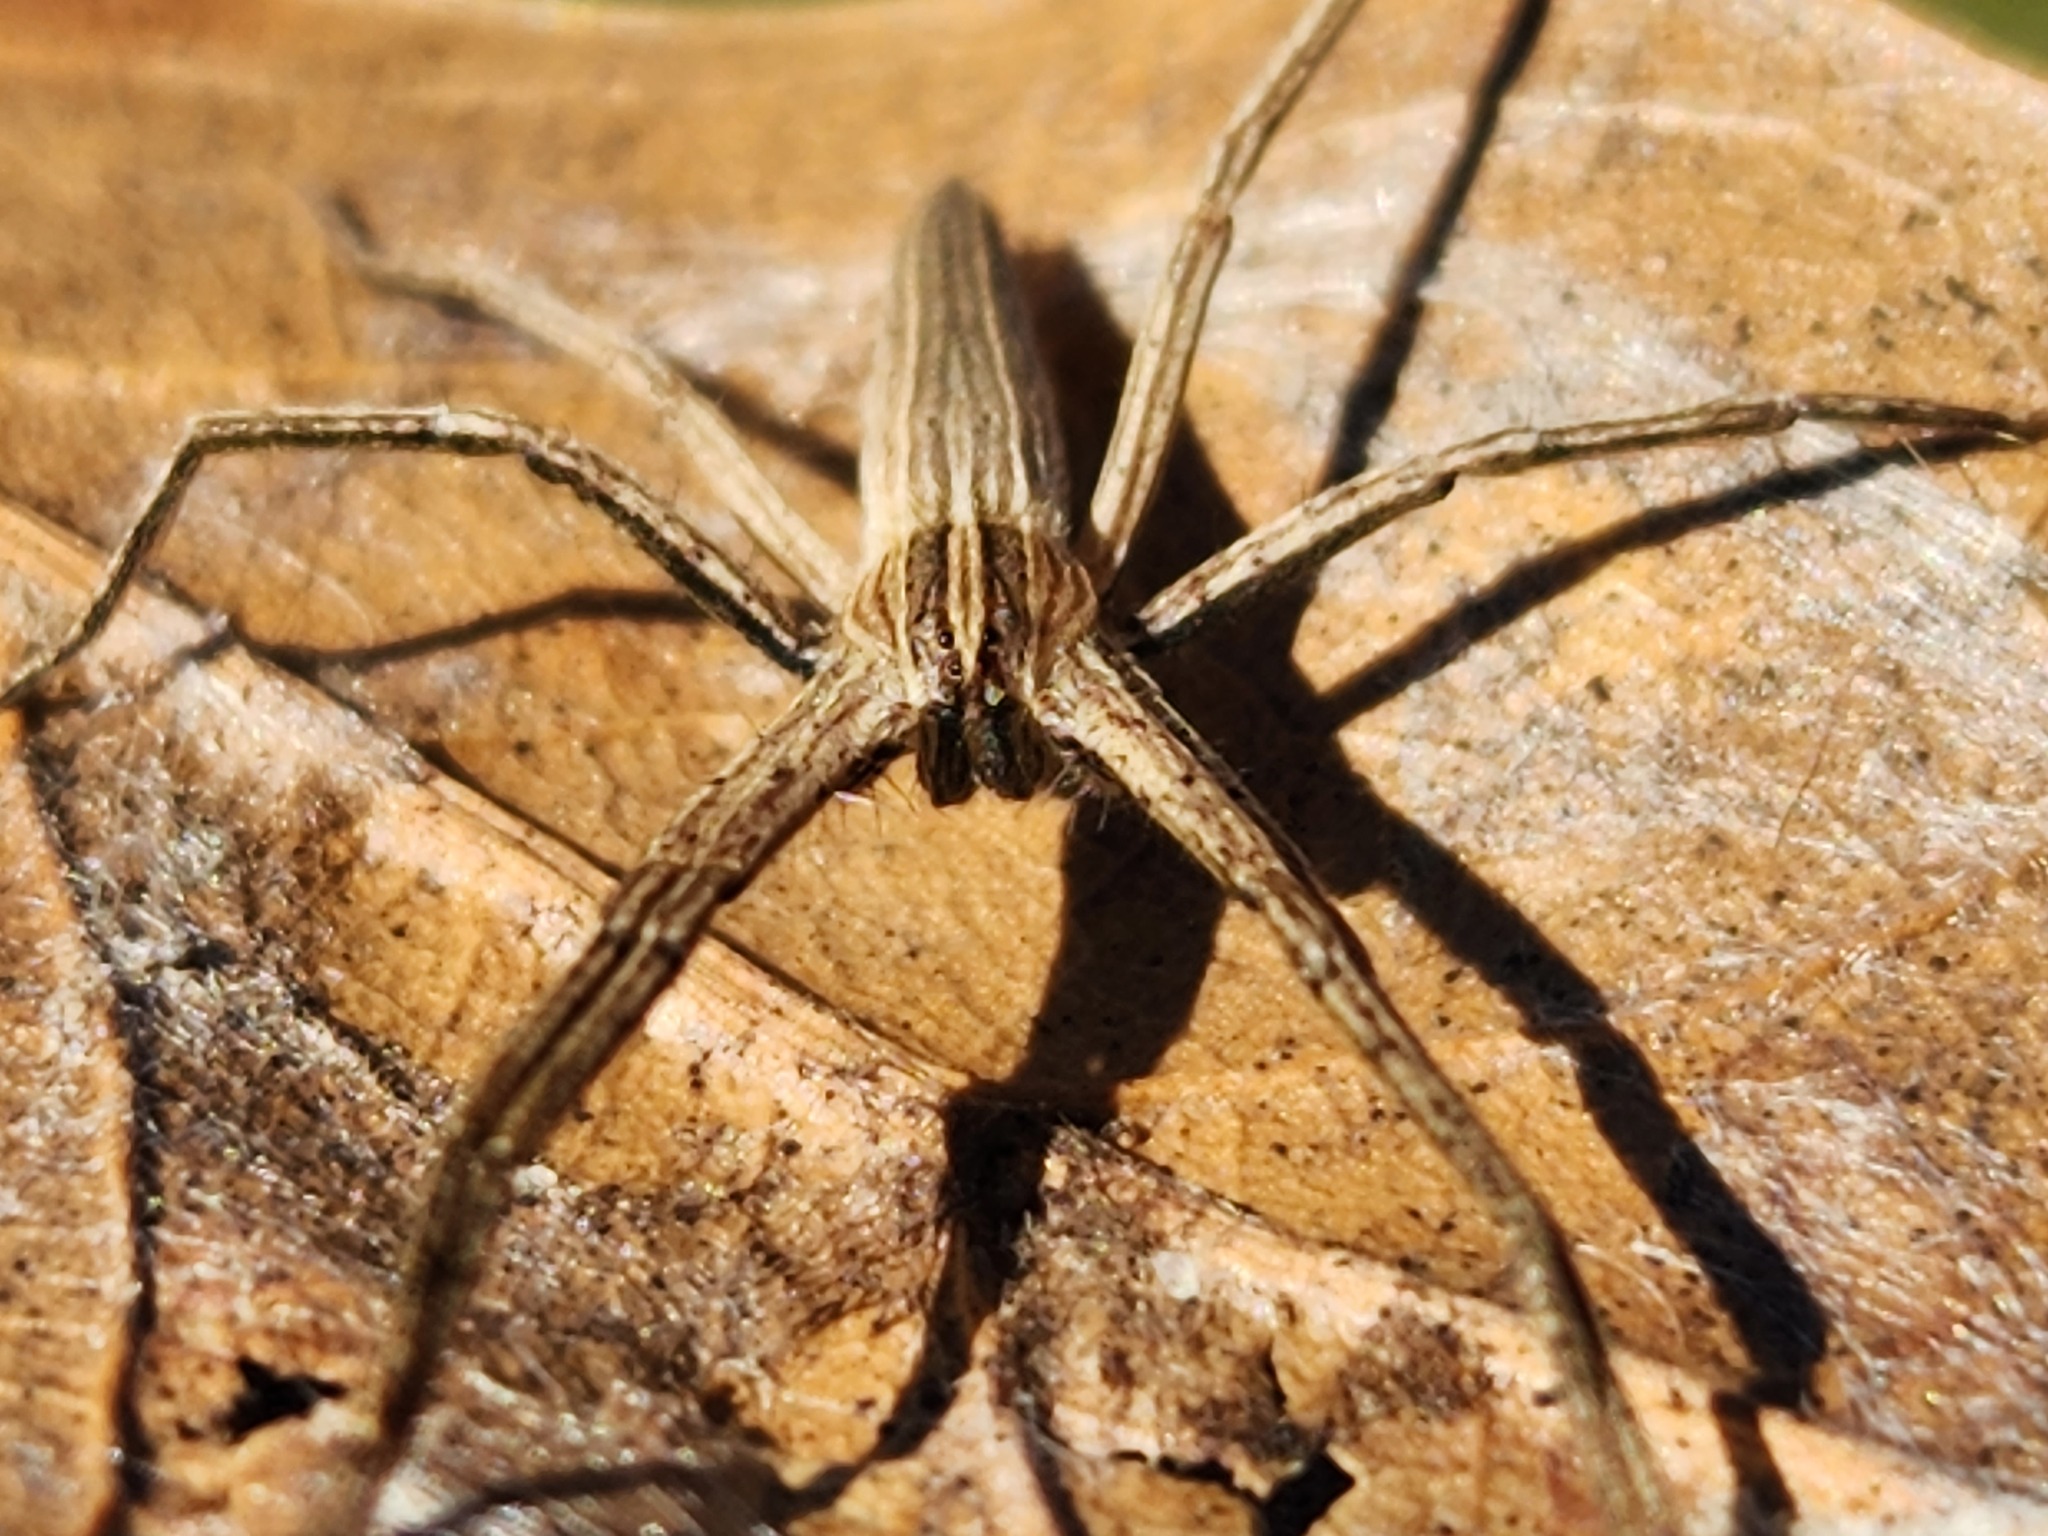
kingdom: Animalia
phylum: Arthropoda
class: Arachnida
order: Araneae
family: Pisauridae
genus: Pisaurina
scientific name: Pisaurina dubia
